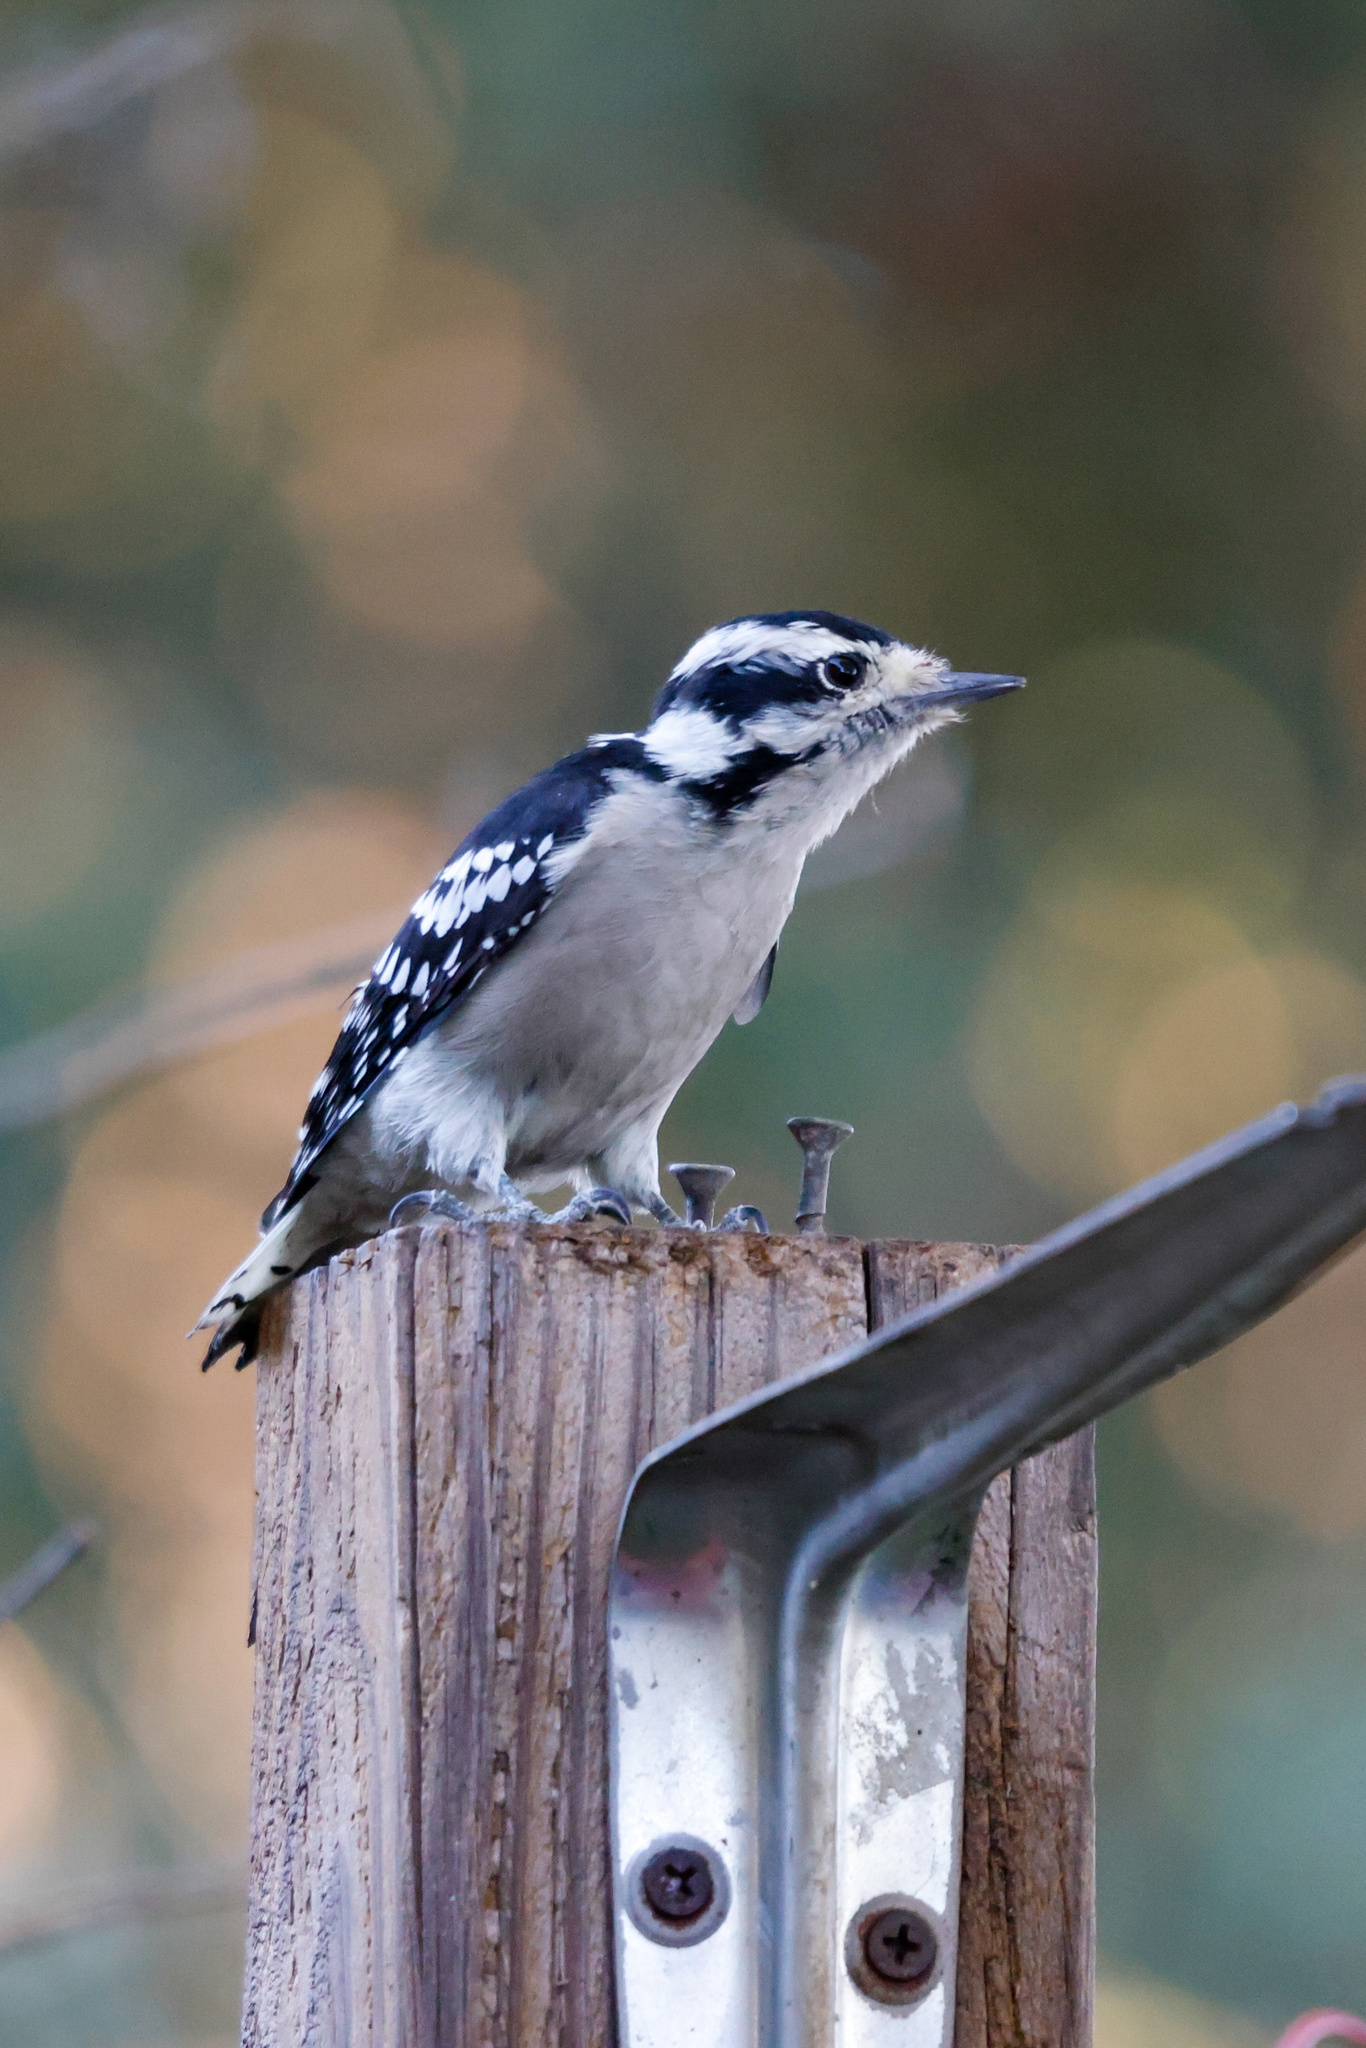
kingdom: Animalia
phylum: Chordata
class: Aves
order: Piciformes
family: Picidae
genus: Dryobates
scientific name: Dryobates pubescens
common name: Downy woodpecker
